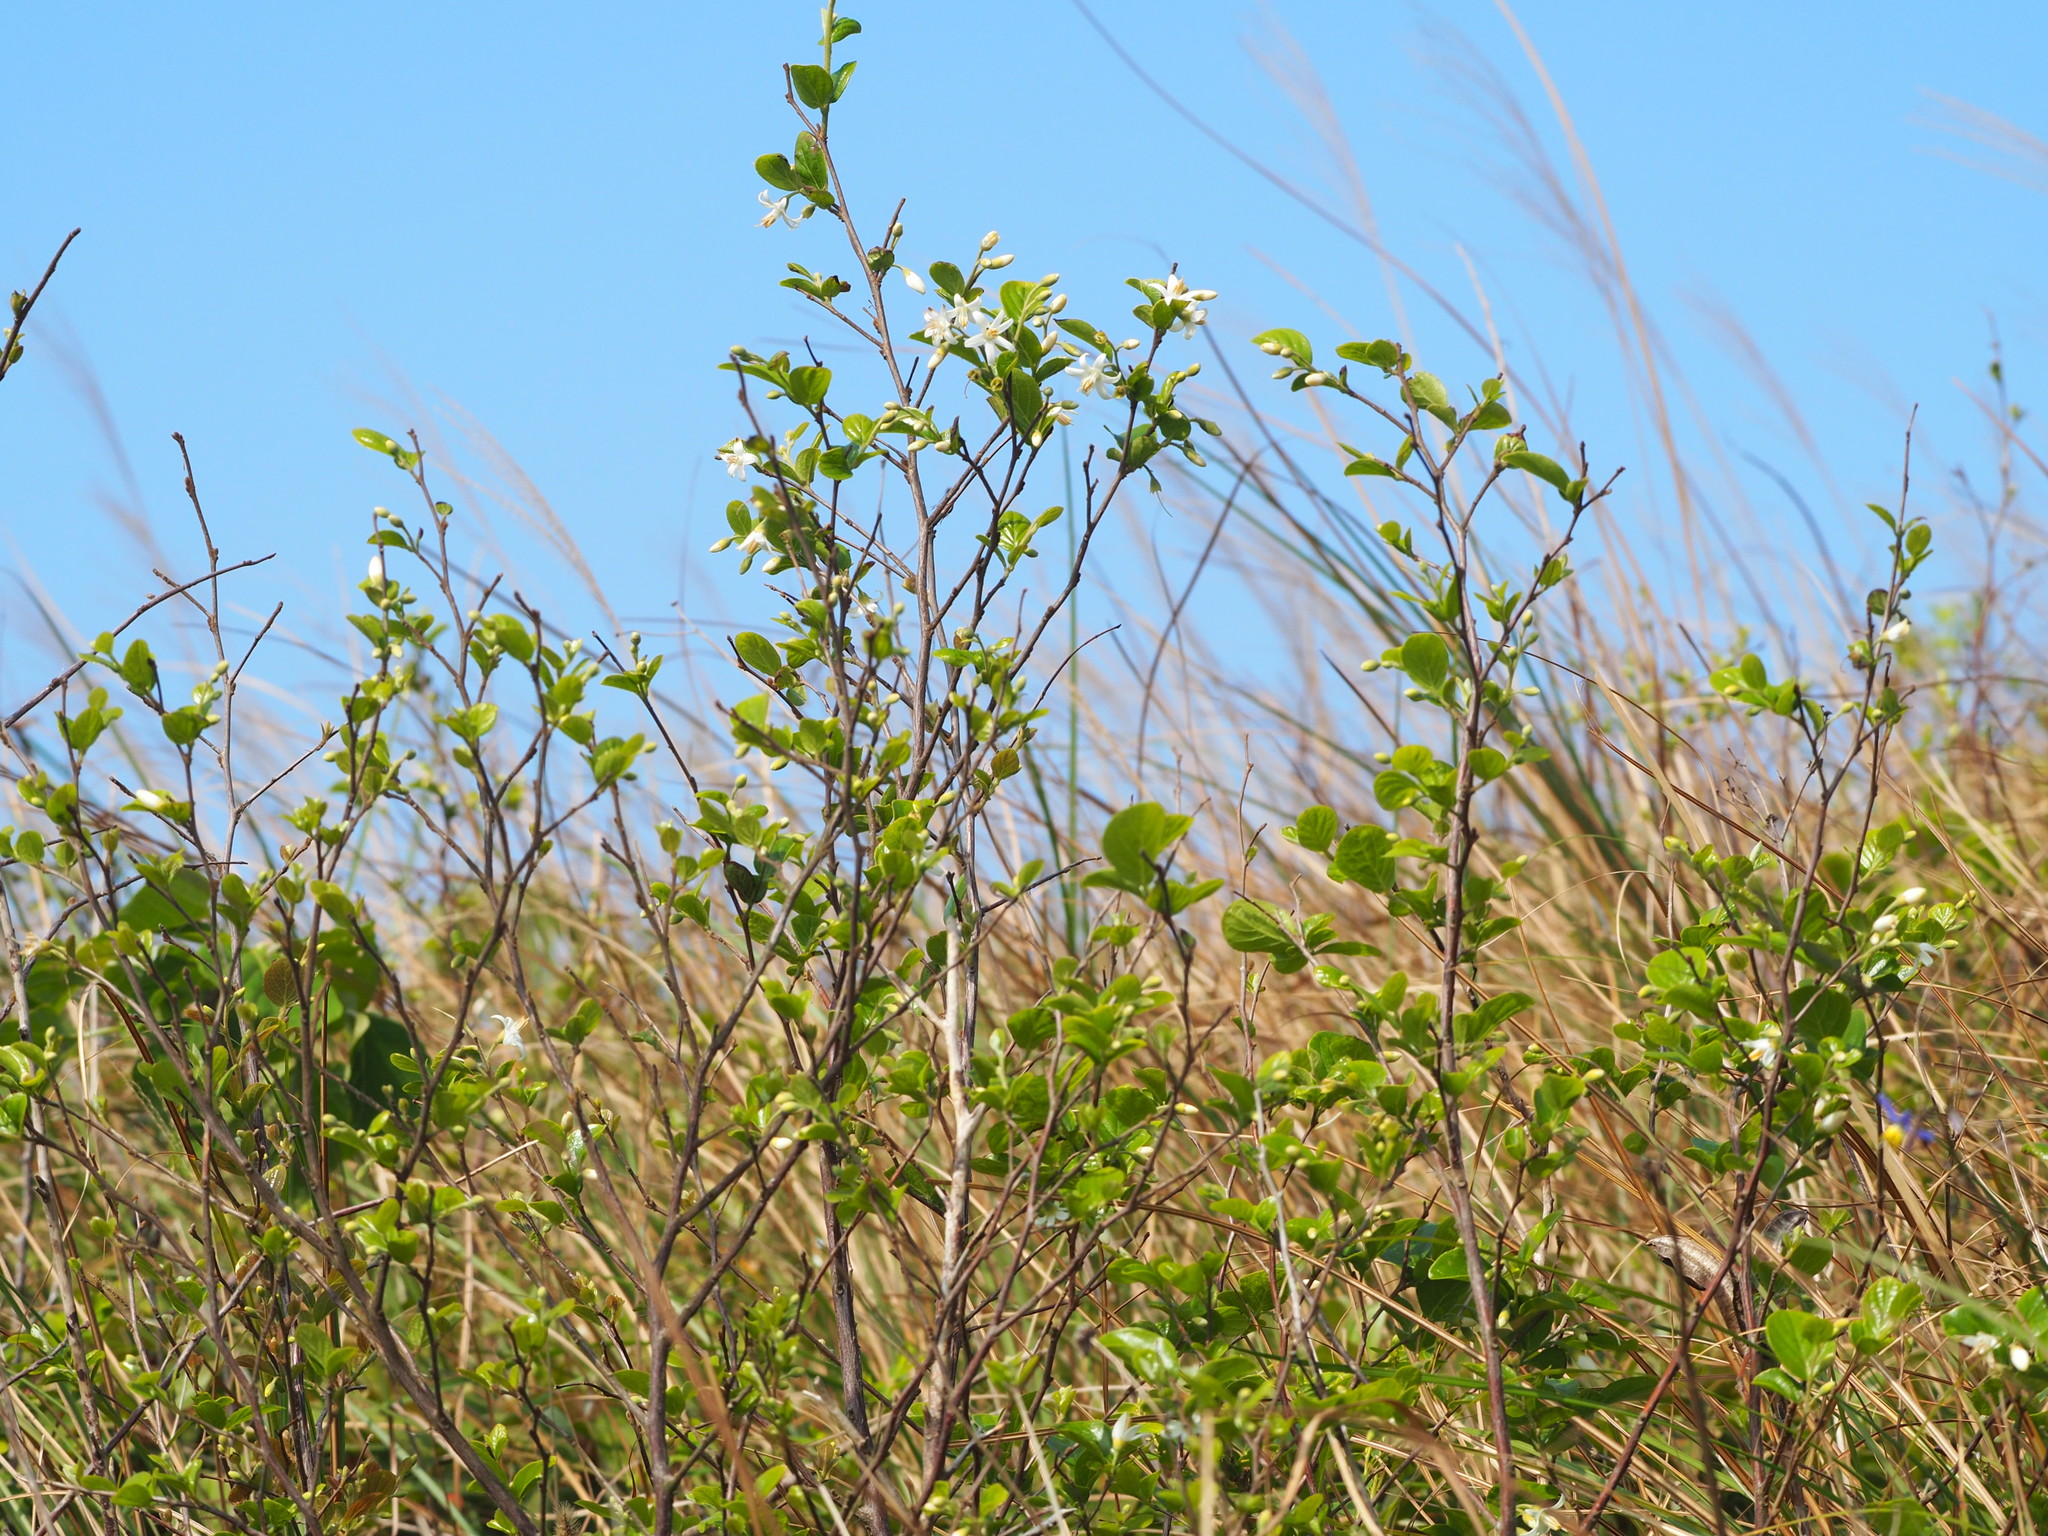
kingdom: Plantae
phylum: Tracheophyta
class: Magnoliopsida
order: Ericales
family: Styracaceae
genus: Styrax
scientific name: Styrax faberi
